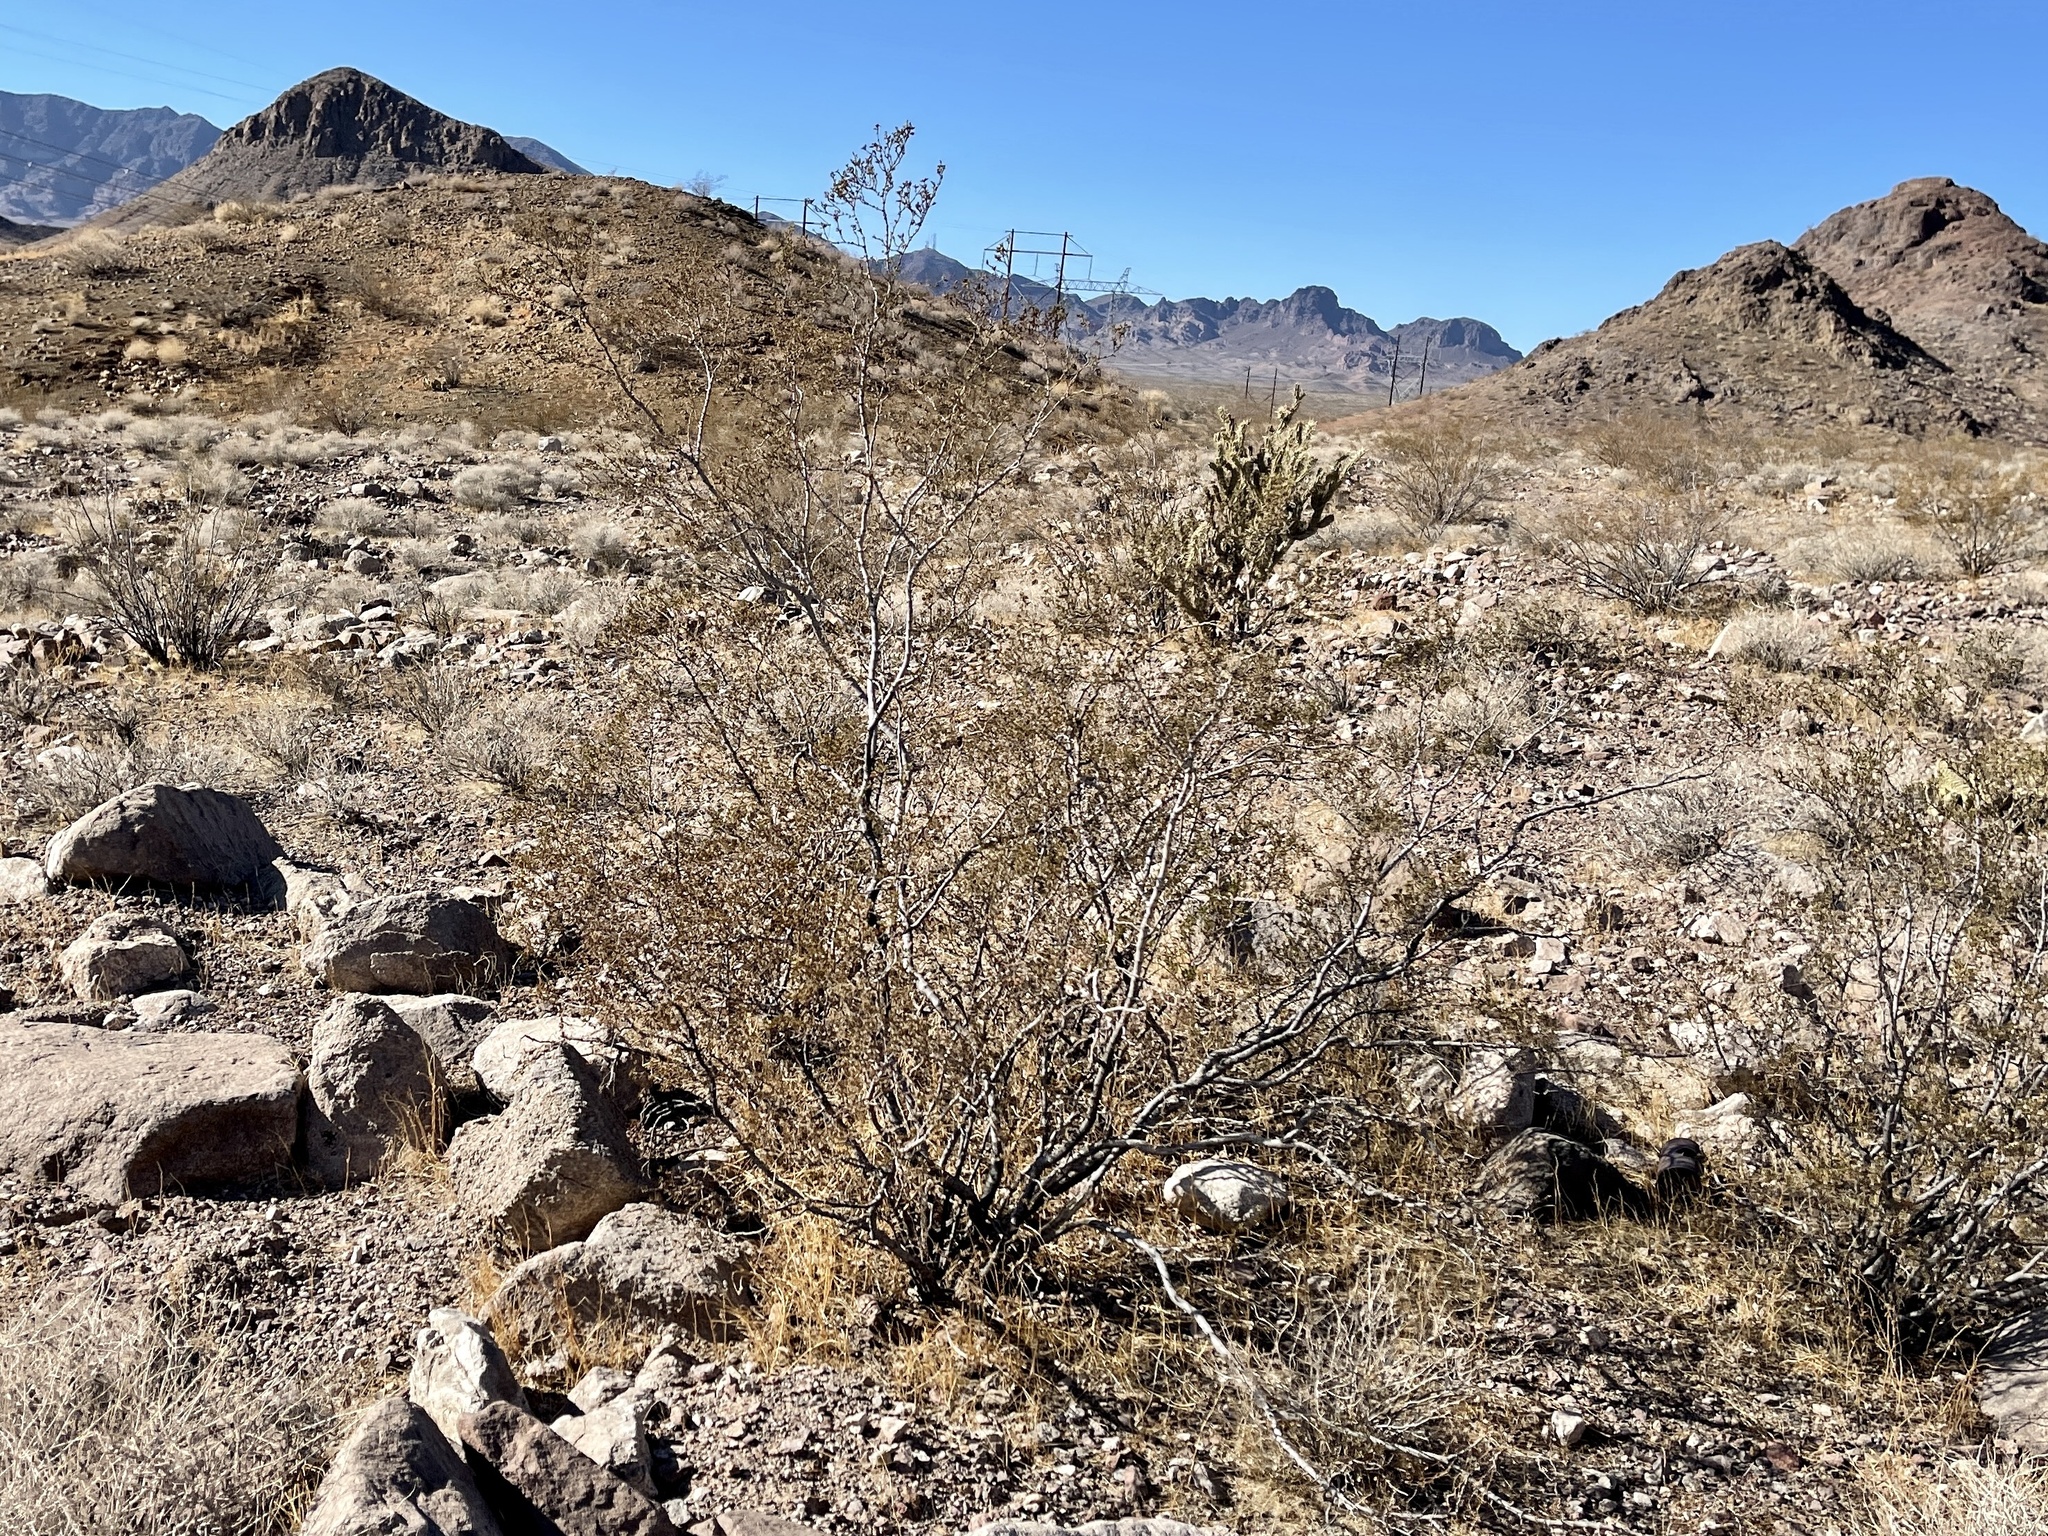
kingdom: Plantae
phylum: Tracheophyta
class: Magnoliopsida
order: Zygophyllales
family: Zygophyllaceae
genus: Larrea
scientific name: Larrea tridentata
